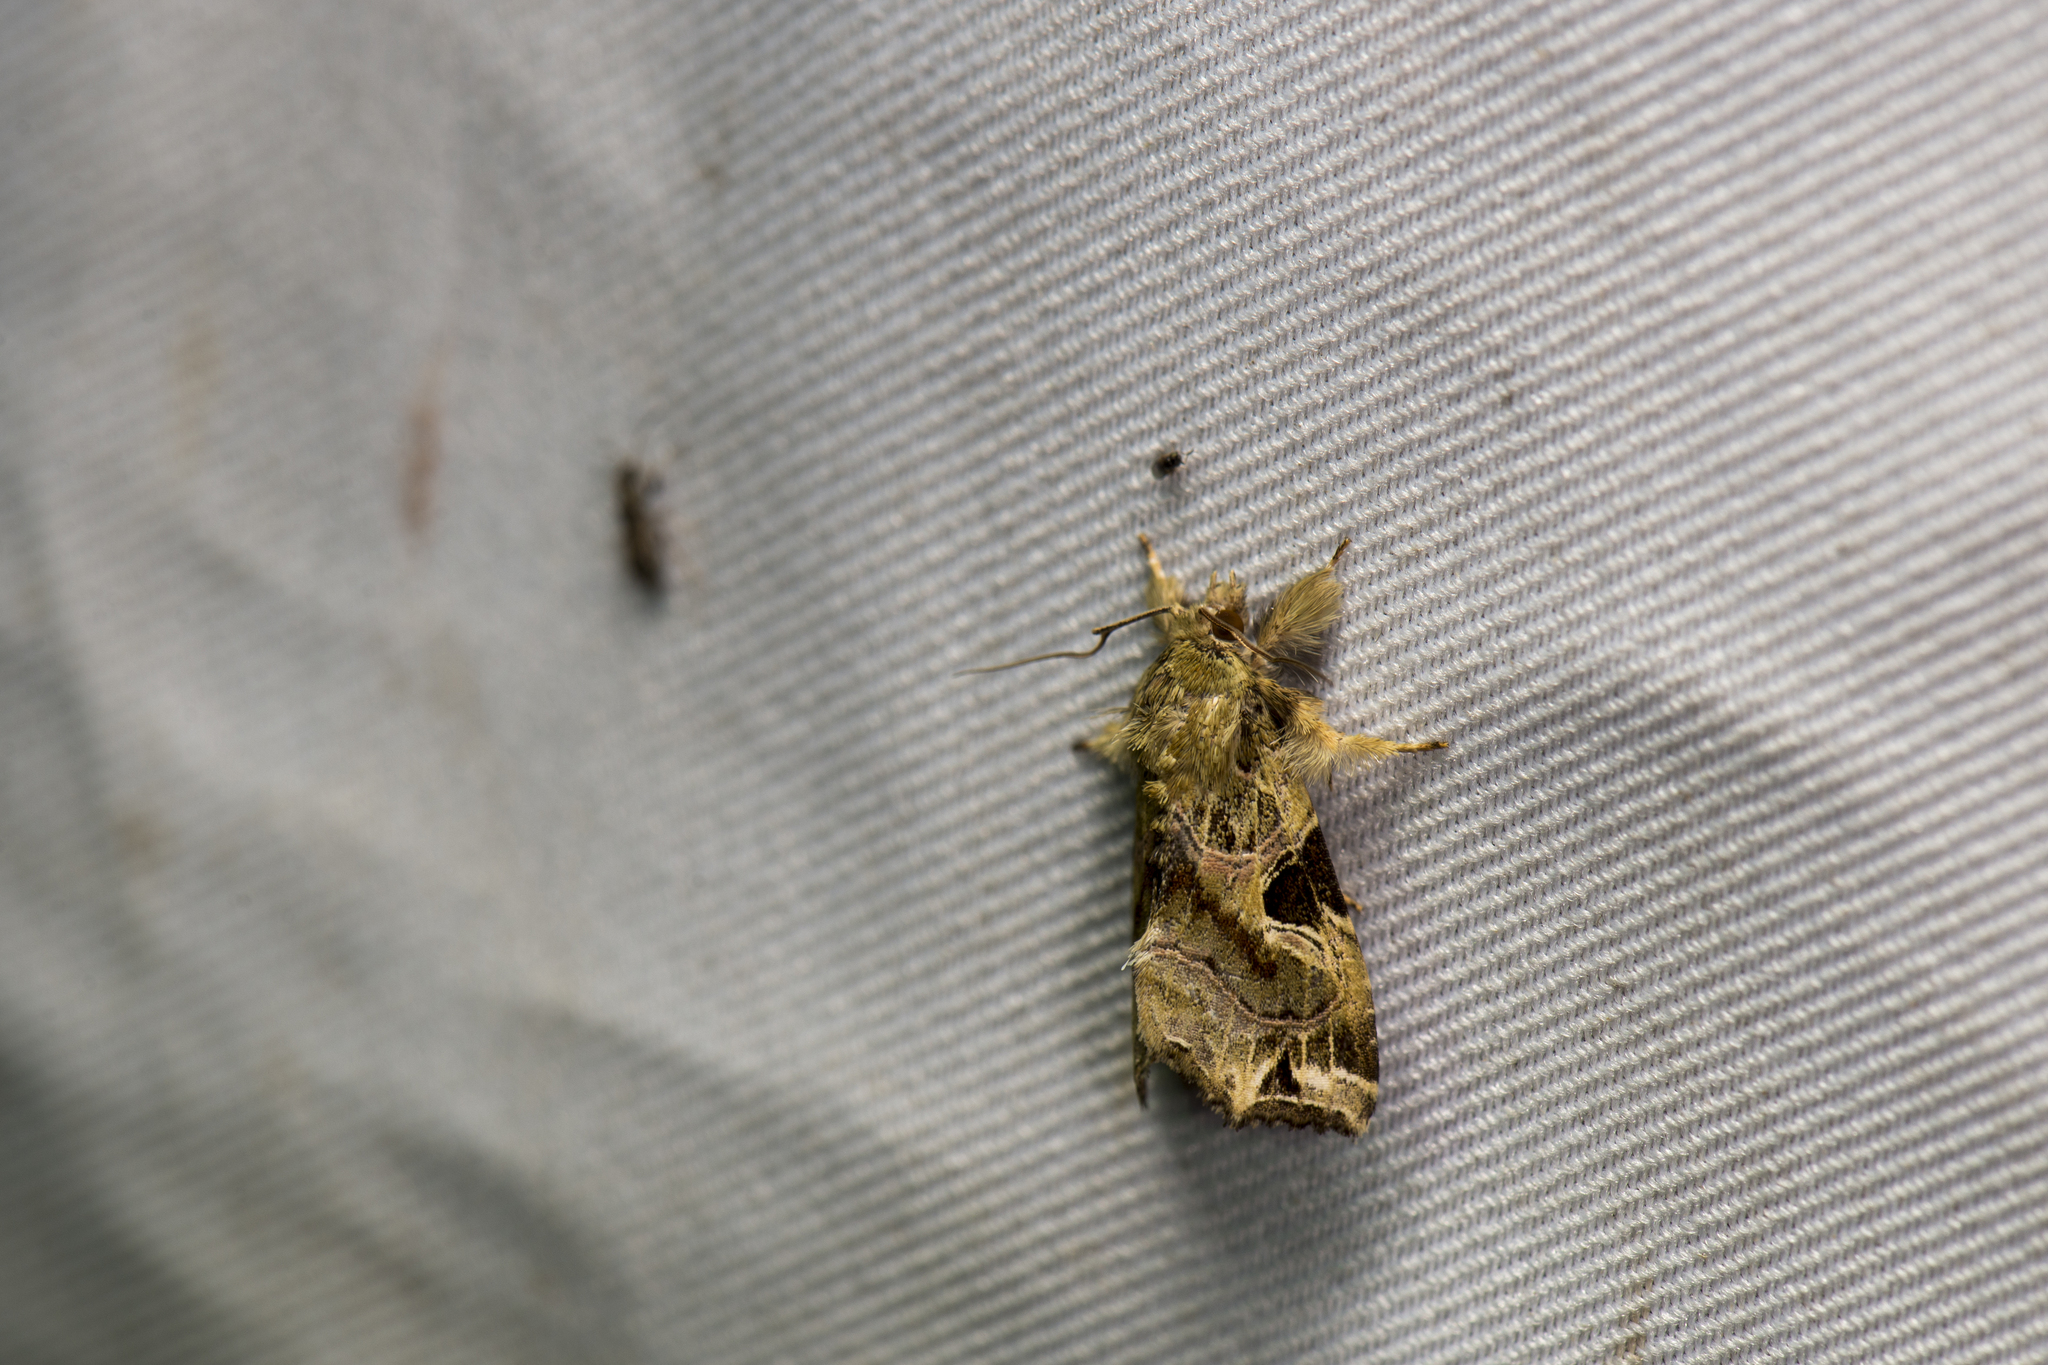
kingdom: Animalia
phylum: Arthropoda
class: Insecta
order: Lepidoptera
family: Noctuidae
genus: Callopistria
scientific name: Callopistria phaeogona
